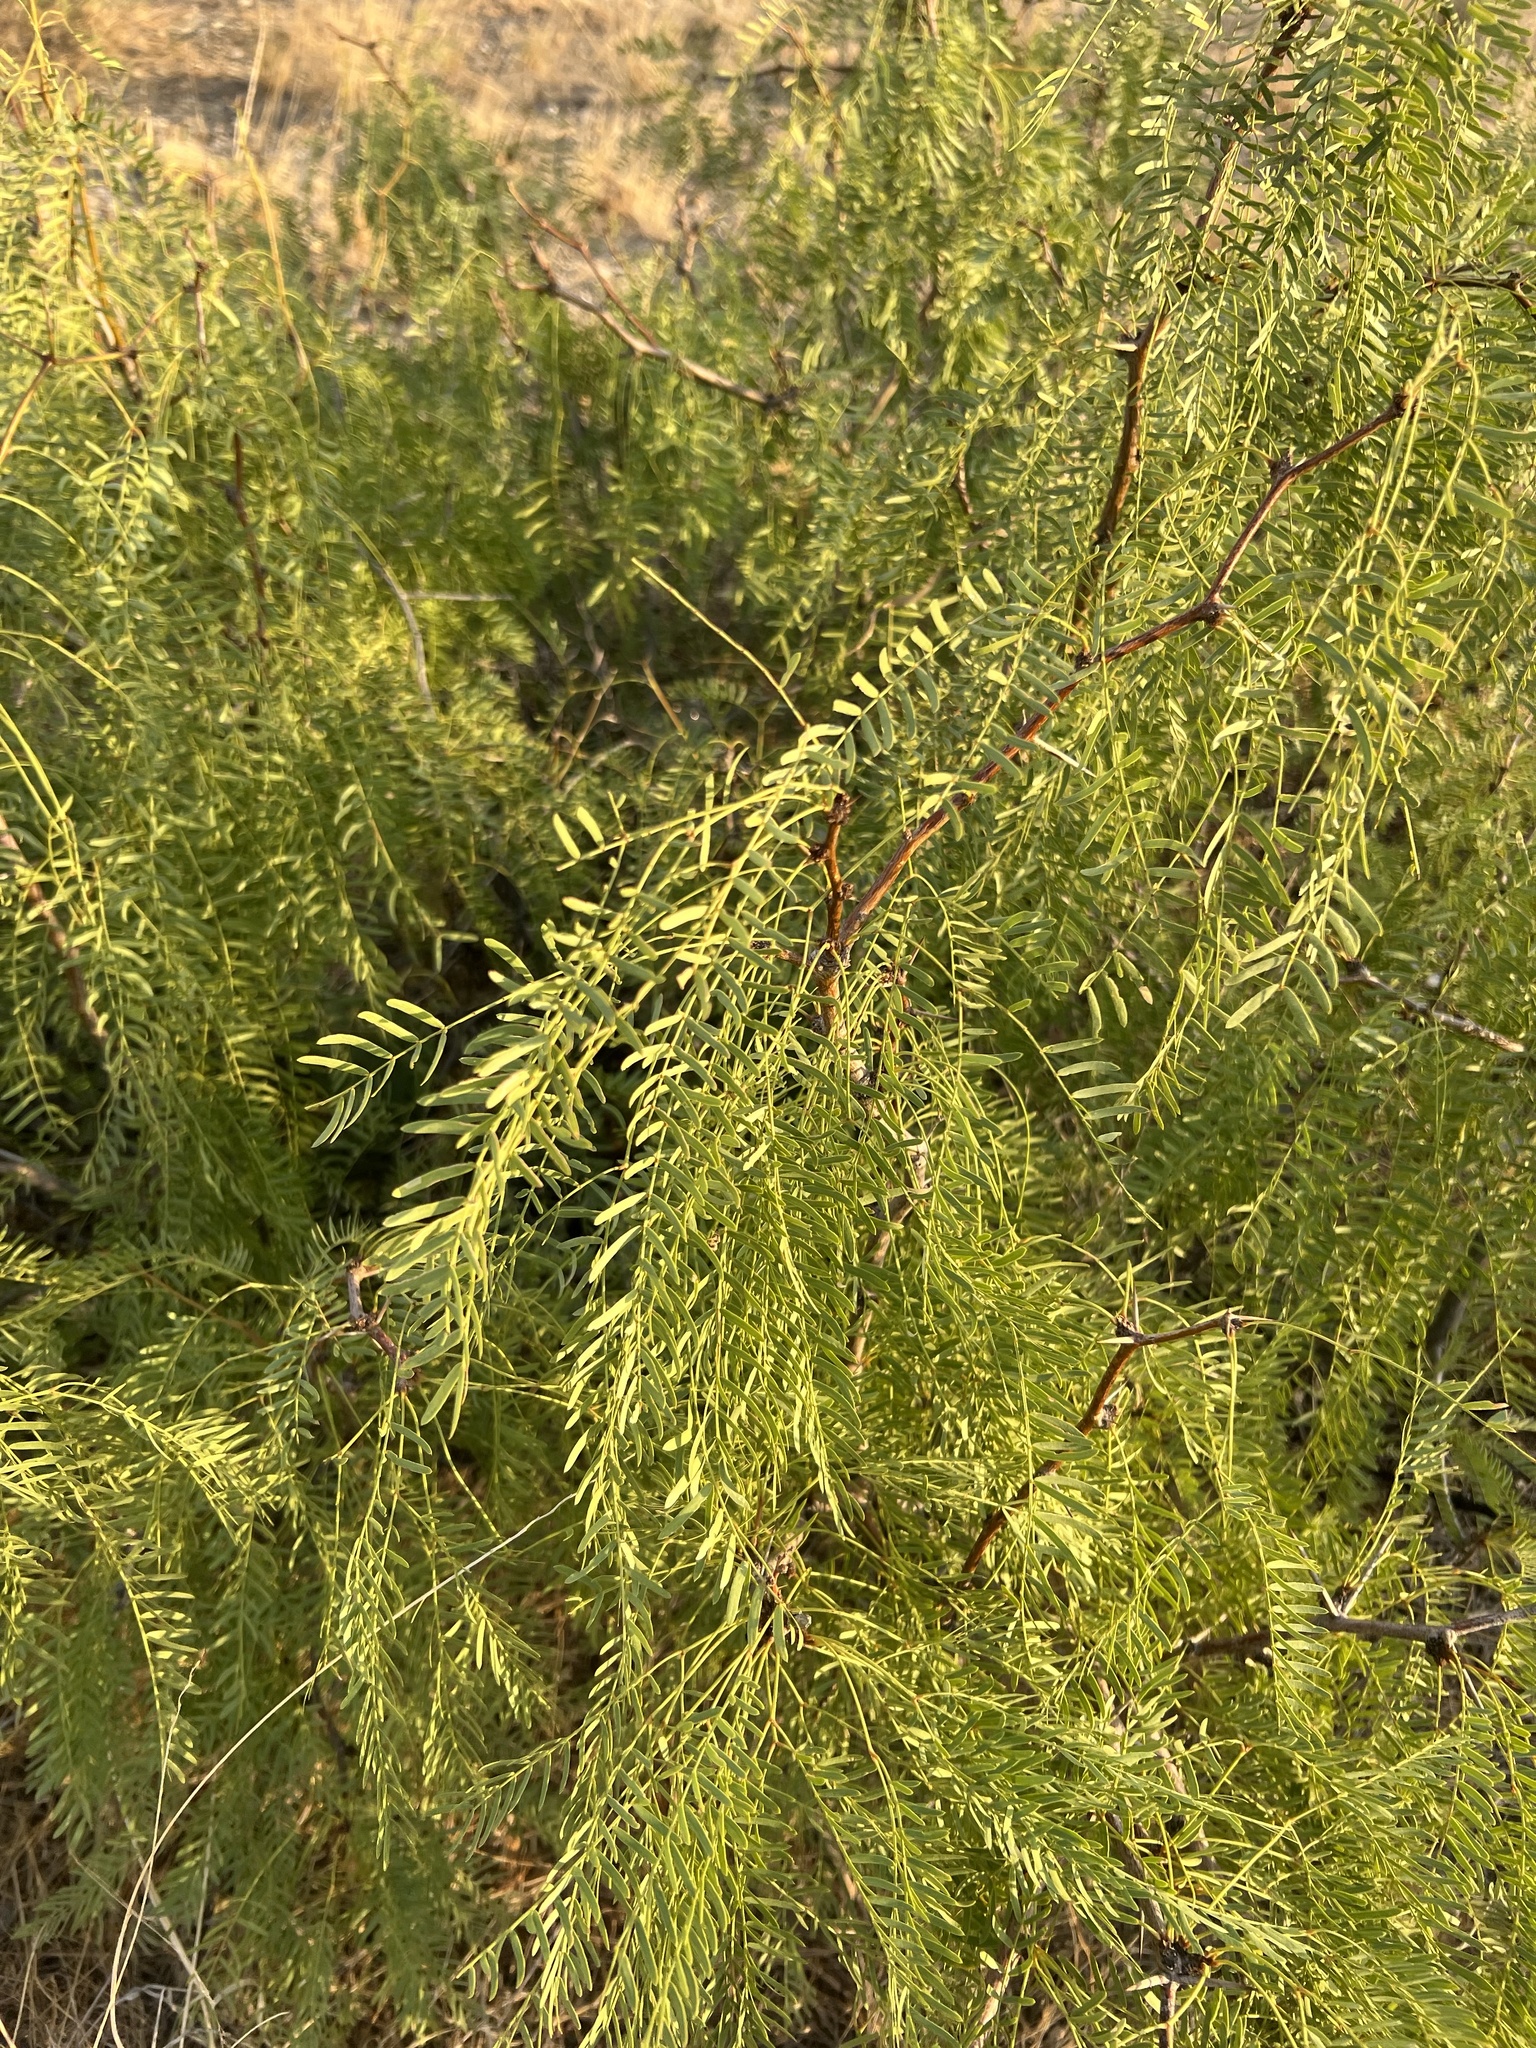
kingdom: Plantae
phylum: Tracheophyta
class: Magnoliopsida
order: Fabales
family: Fabaceae
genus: Prosopis
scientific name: Prosopis glandulosa
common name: Honey mesquite
